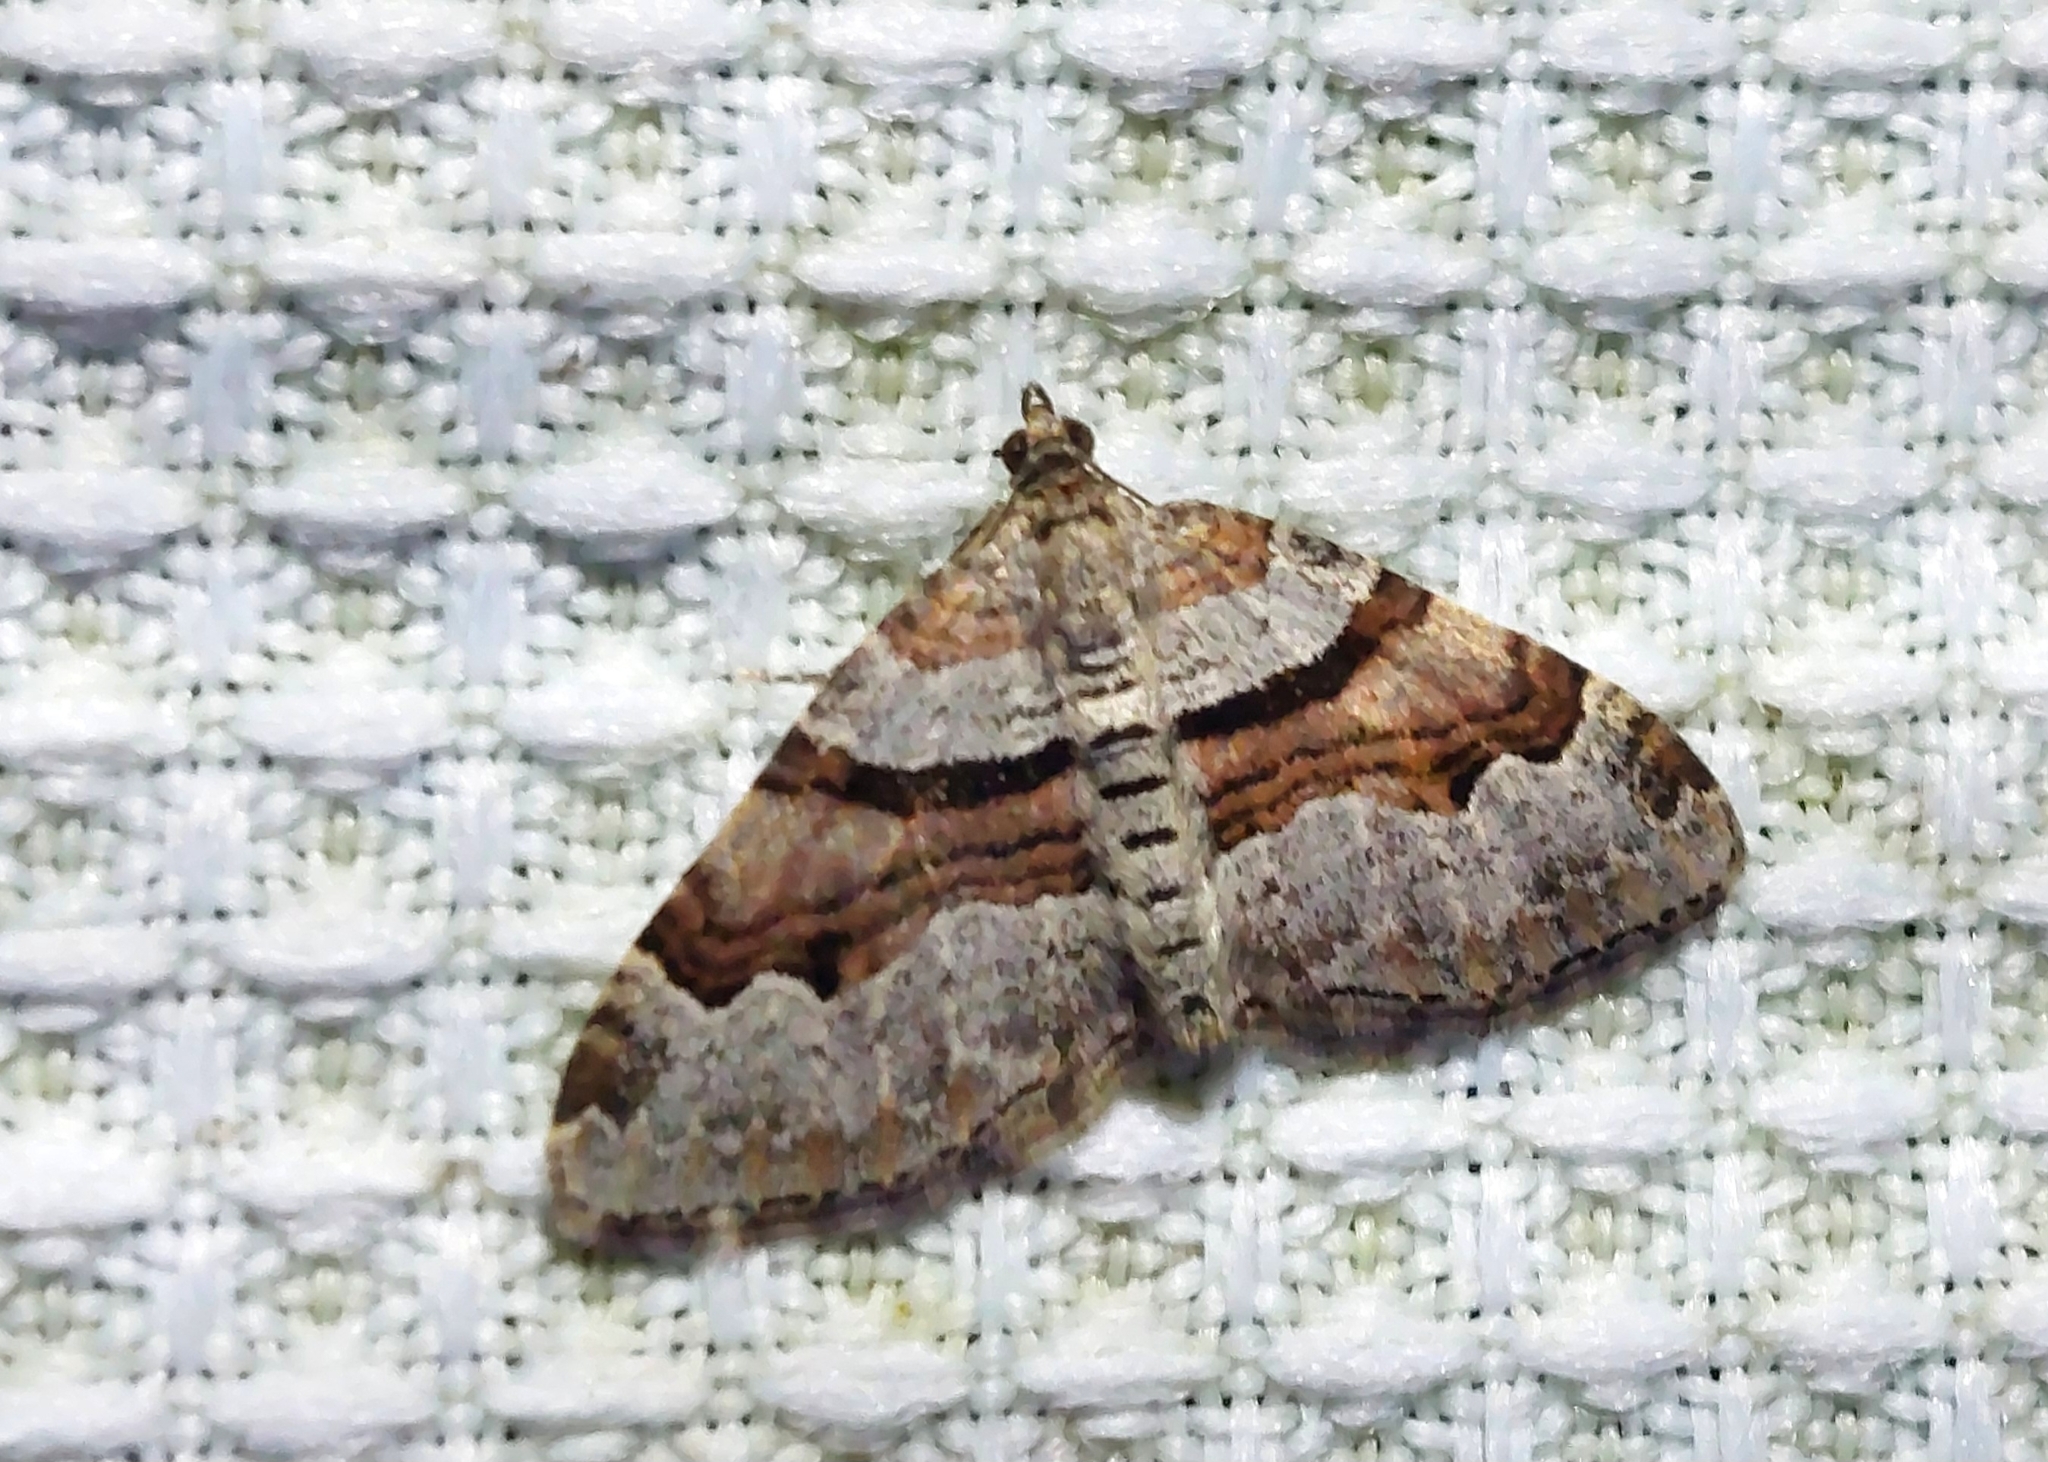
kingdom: Animalia
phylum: Arthropoda
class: Insecta
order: Lepidoptera
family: Geometridae
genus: Xanthorhoe
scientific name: Xanthorhoe designata
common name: Flame carpet
